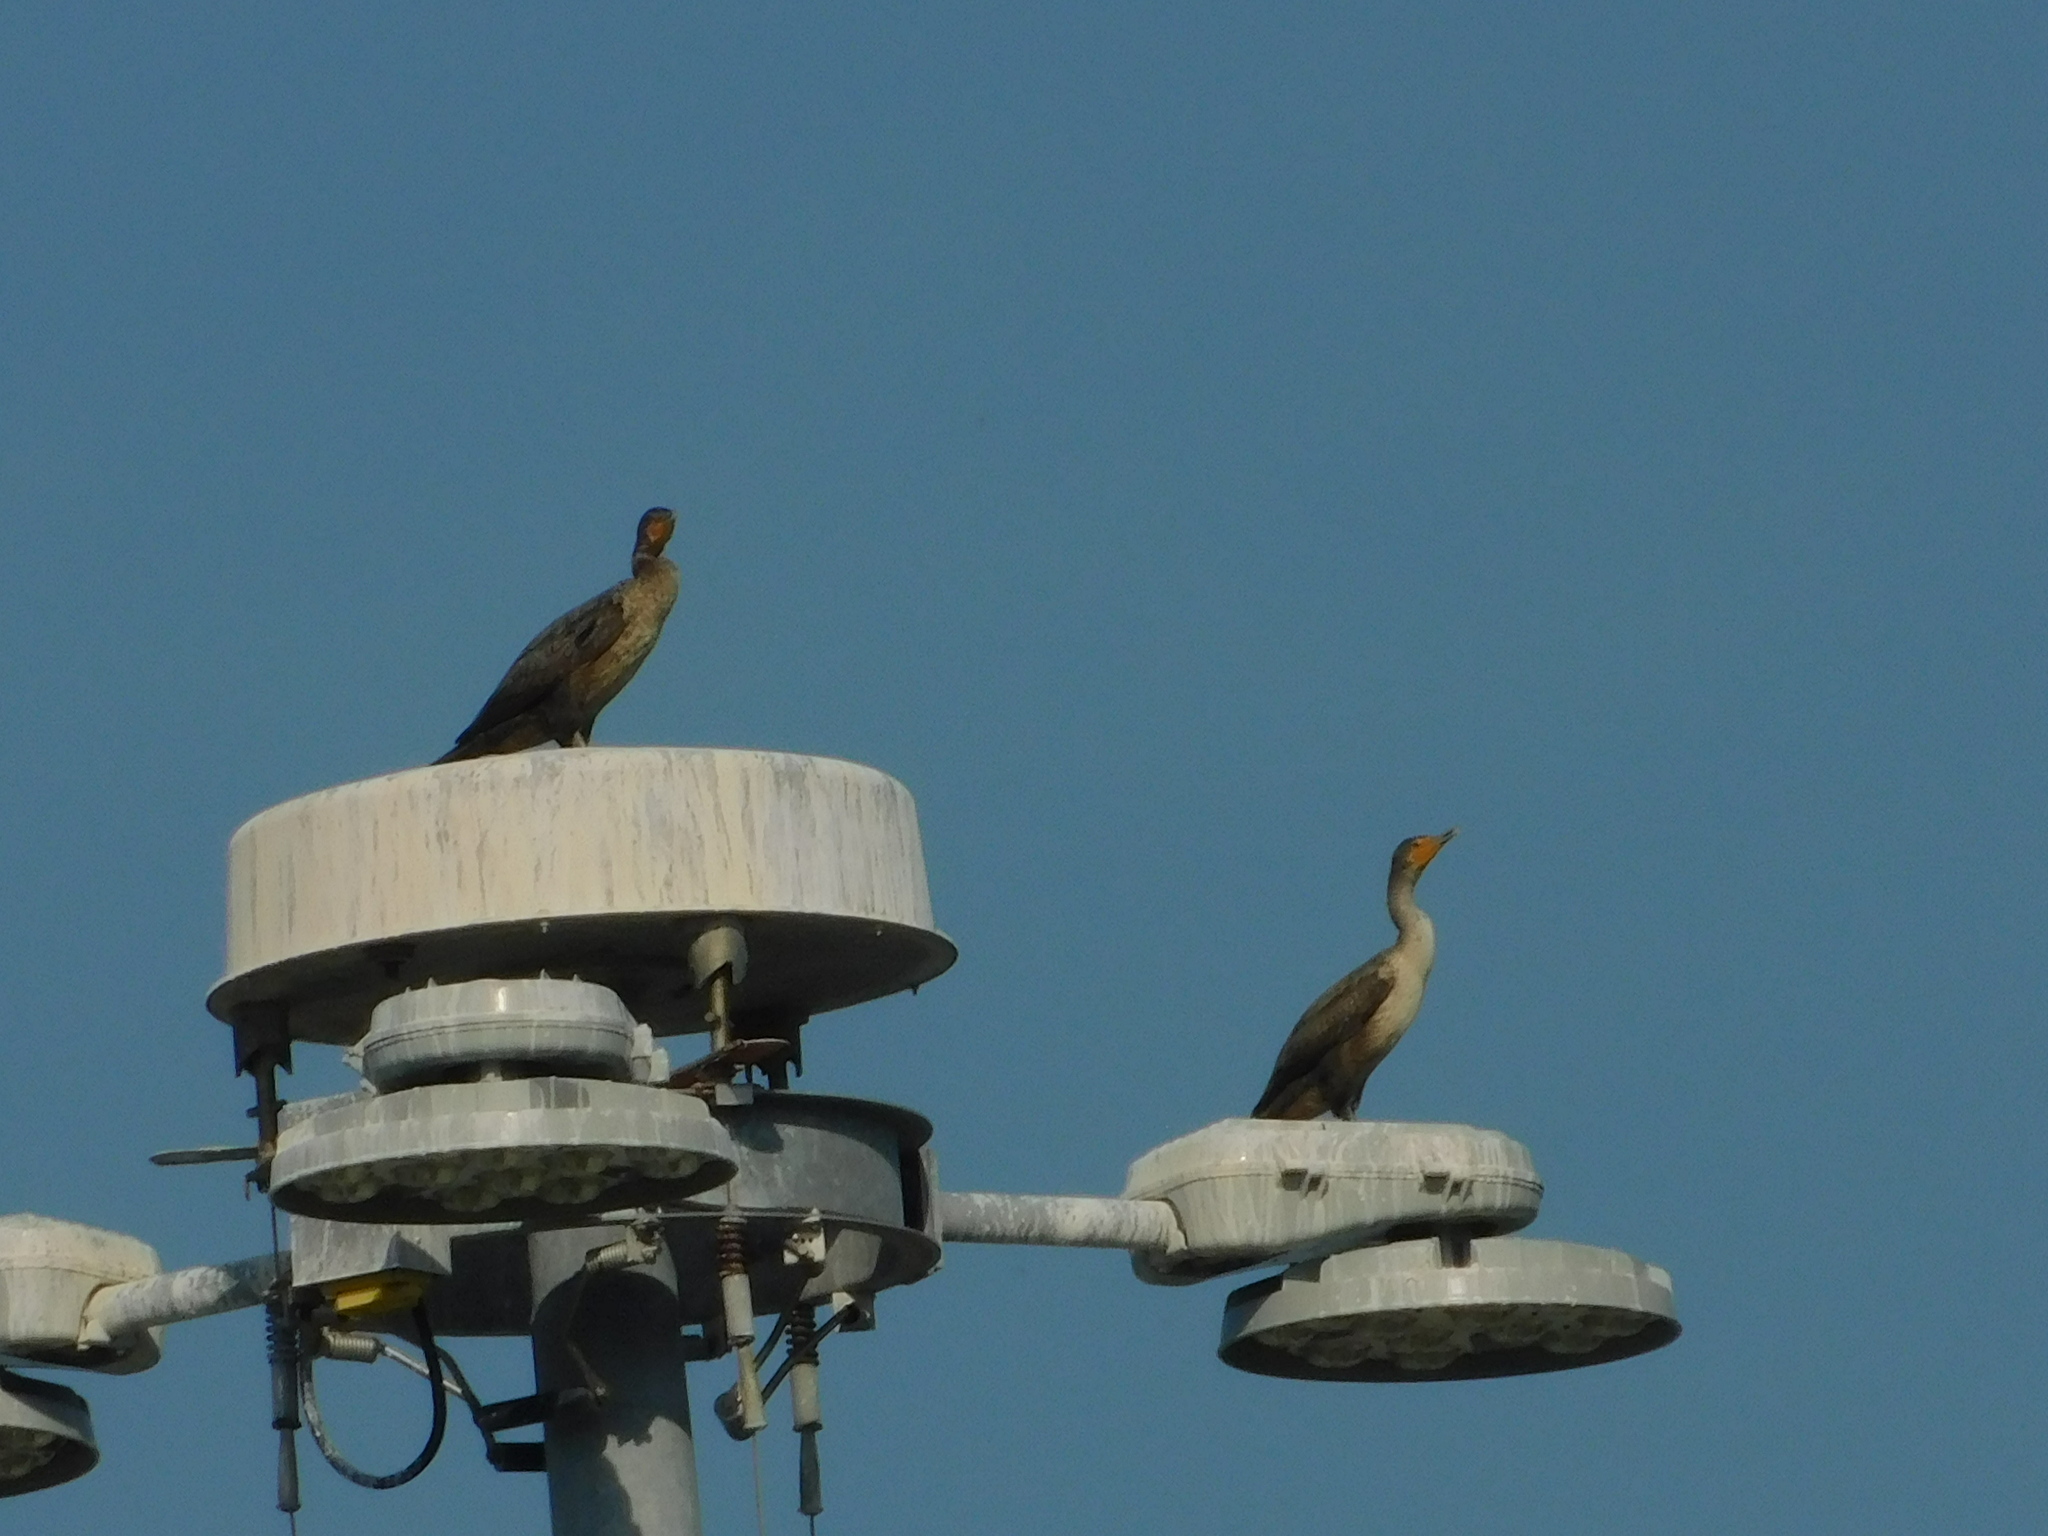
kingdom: Animalia
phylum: Chordata
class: Aves
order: Suliformes
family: Phalacrocoracidae
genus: Phalacrocorax
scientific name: Phalacrocorax auritus
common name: Double-crested cormorant
